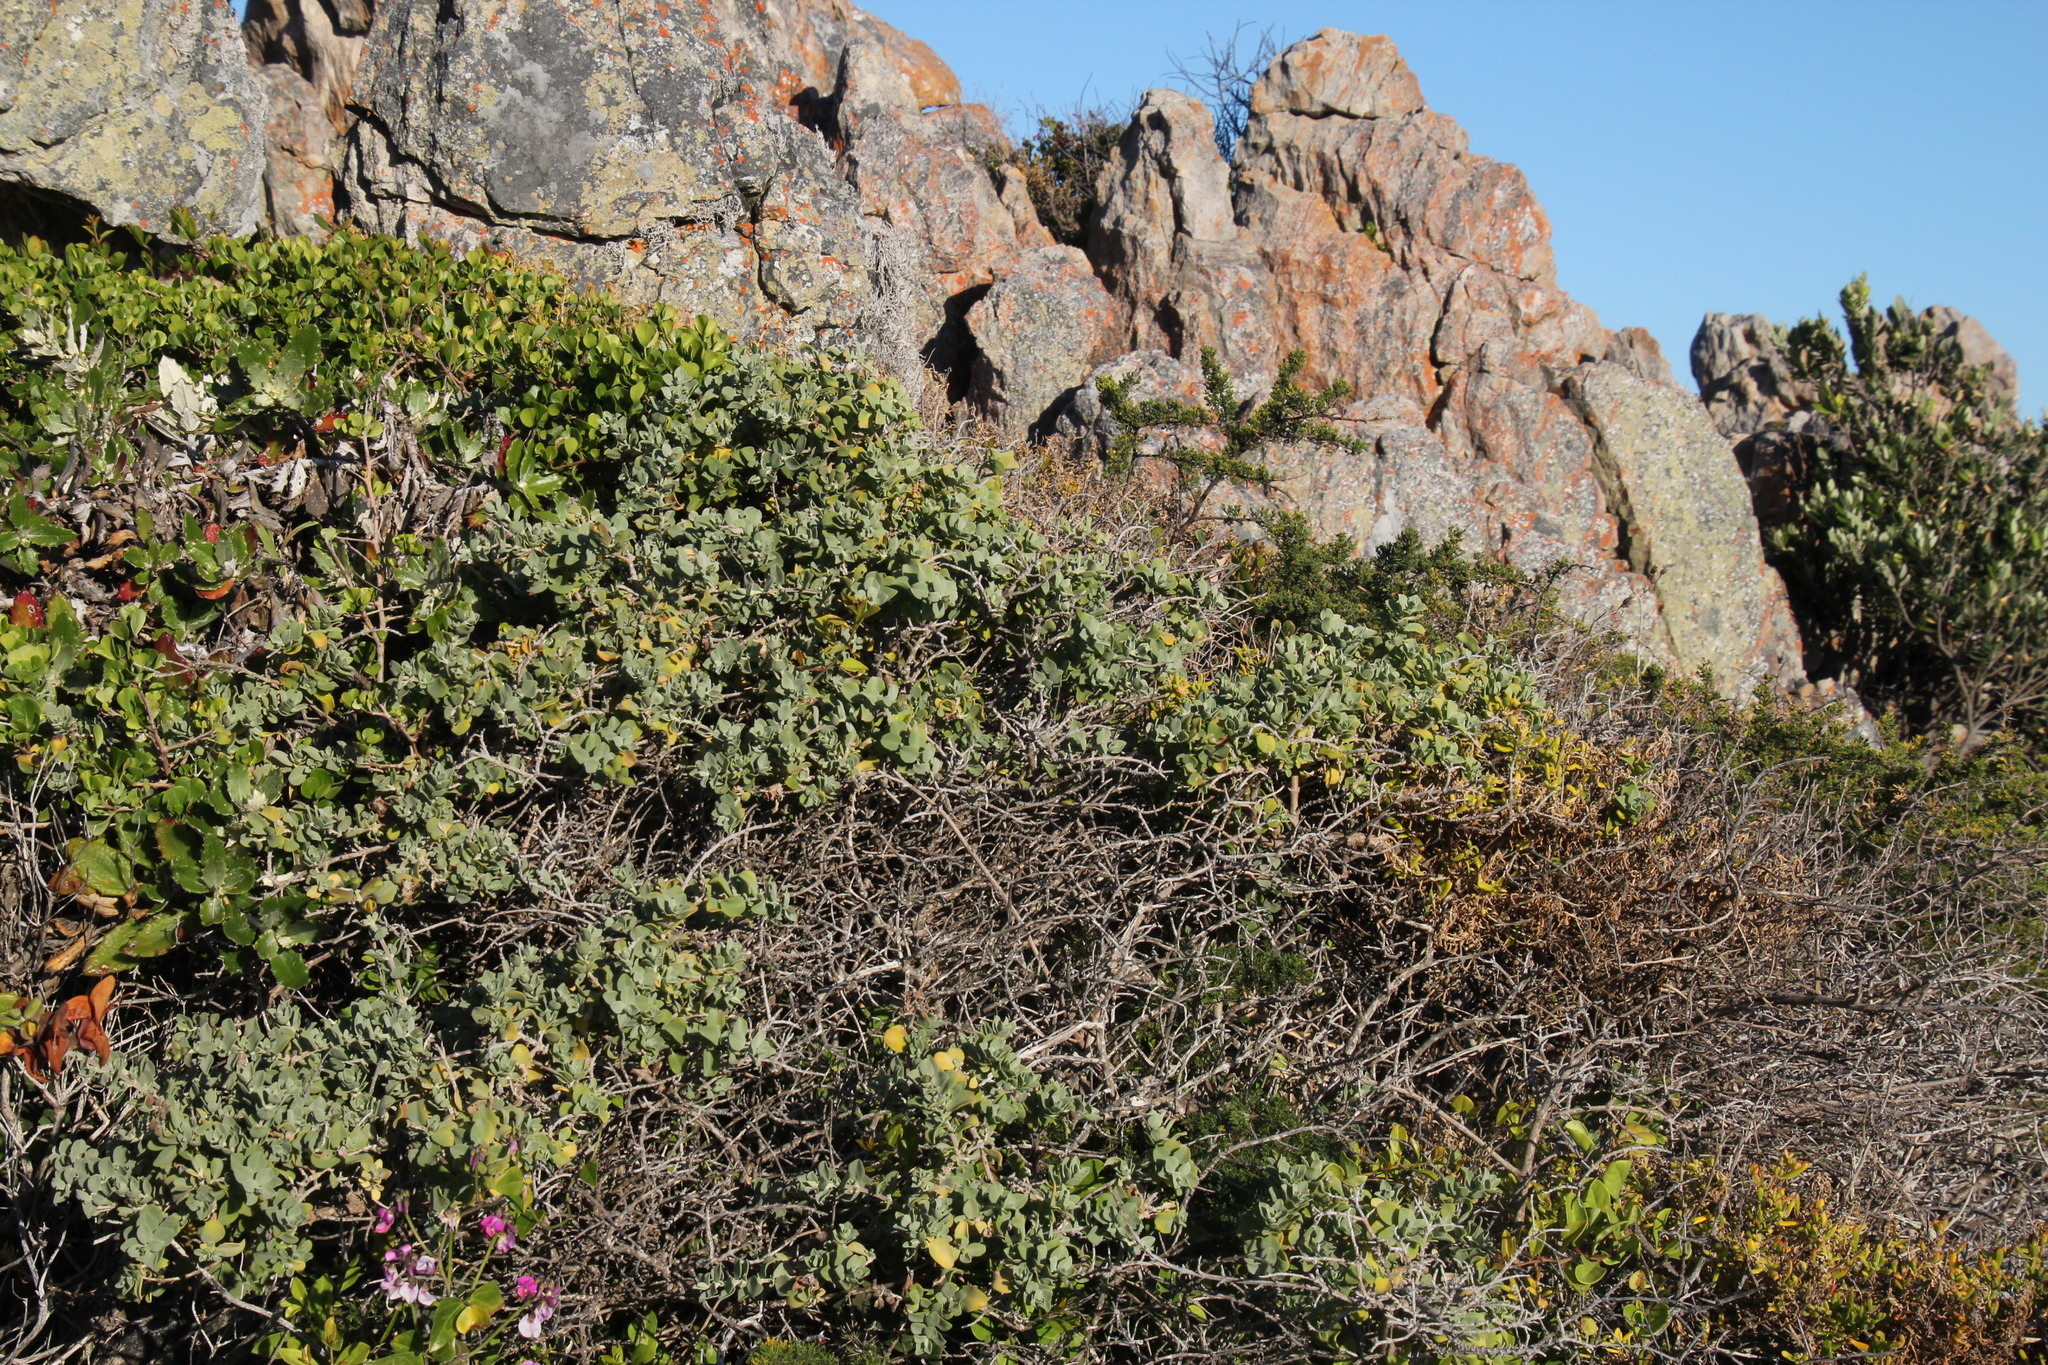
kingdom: Plantae
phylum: Tracheophyta
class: Magnoliopsida
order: Lamiales
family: Lamiaceae
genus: Salvia
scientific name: Salvia aurea
